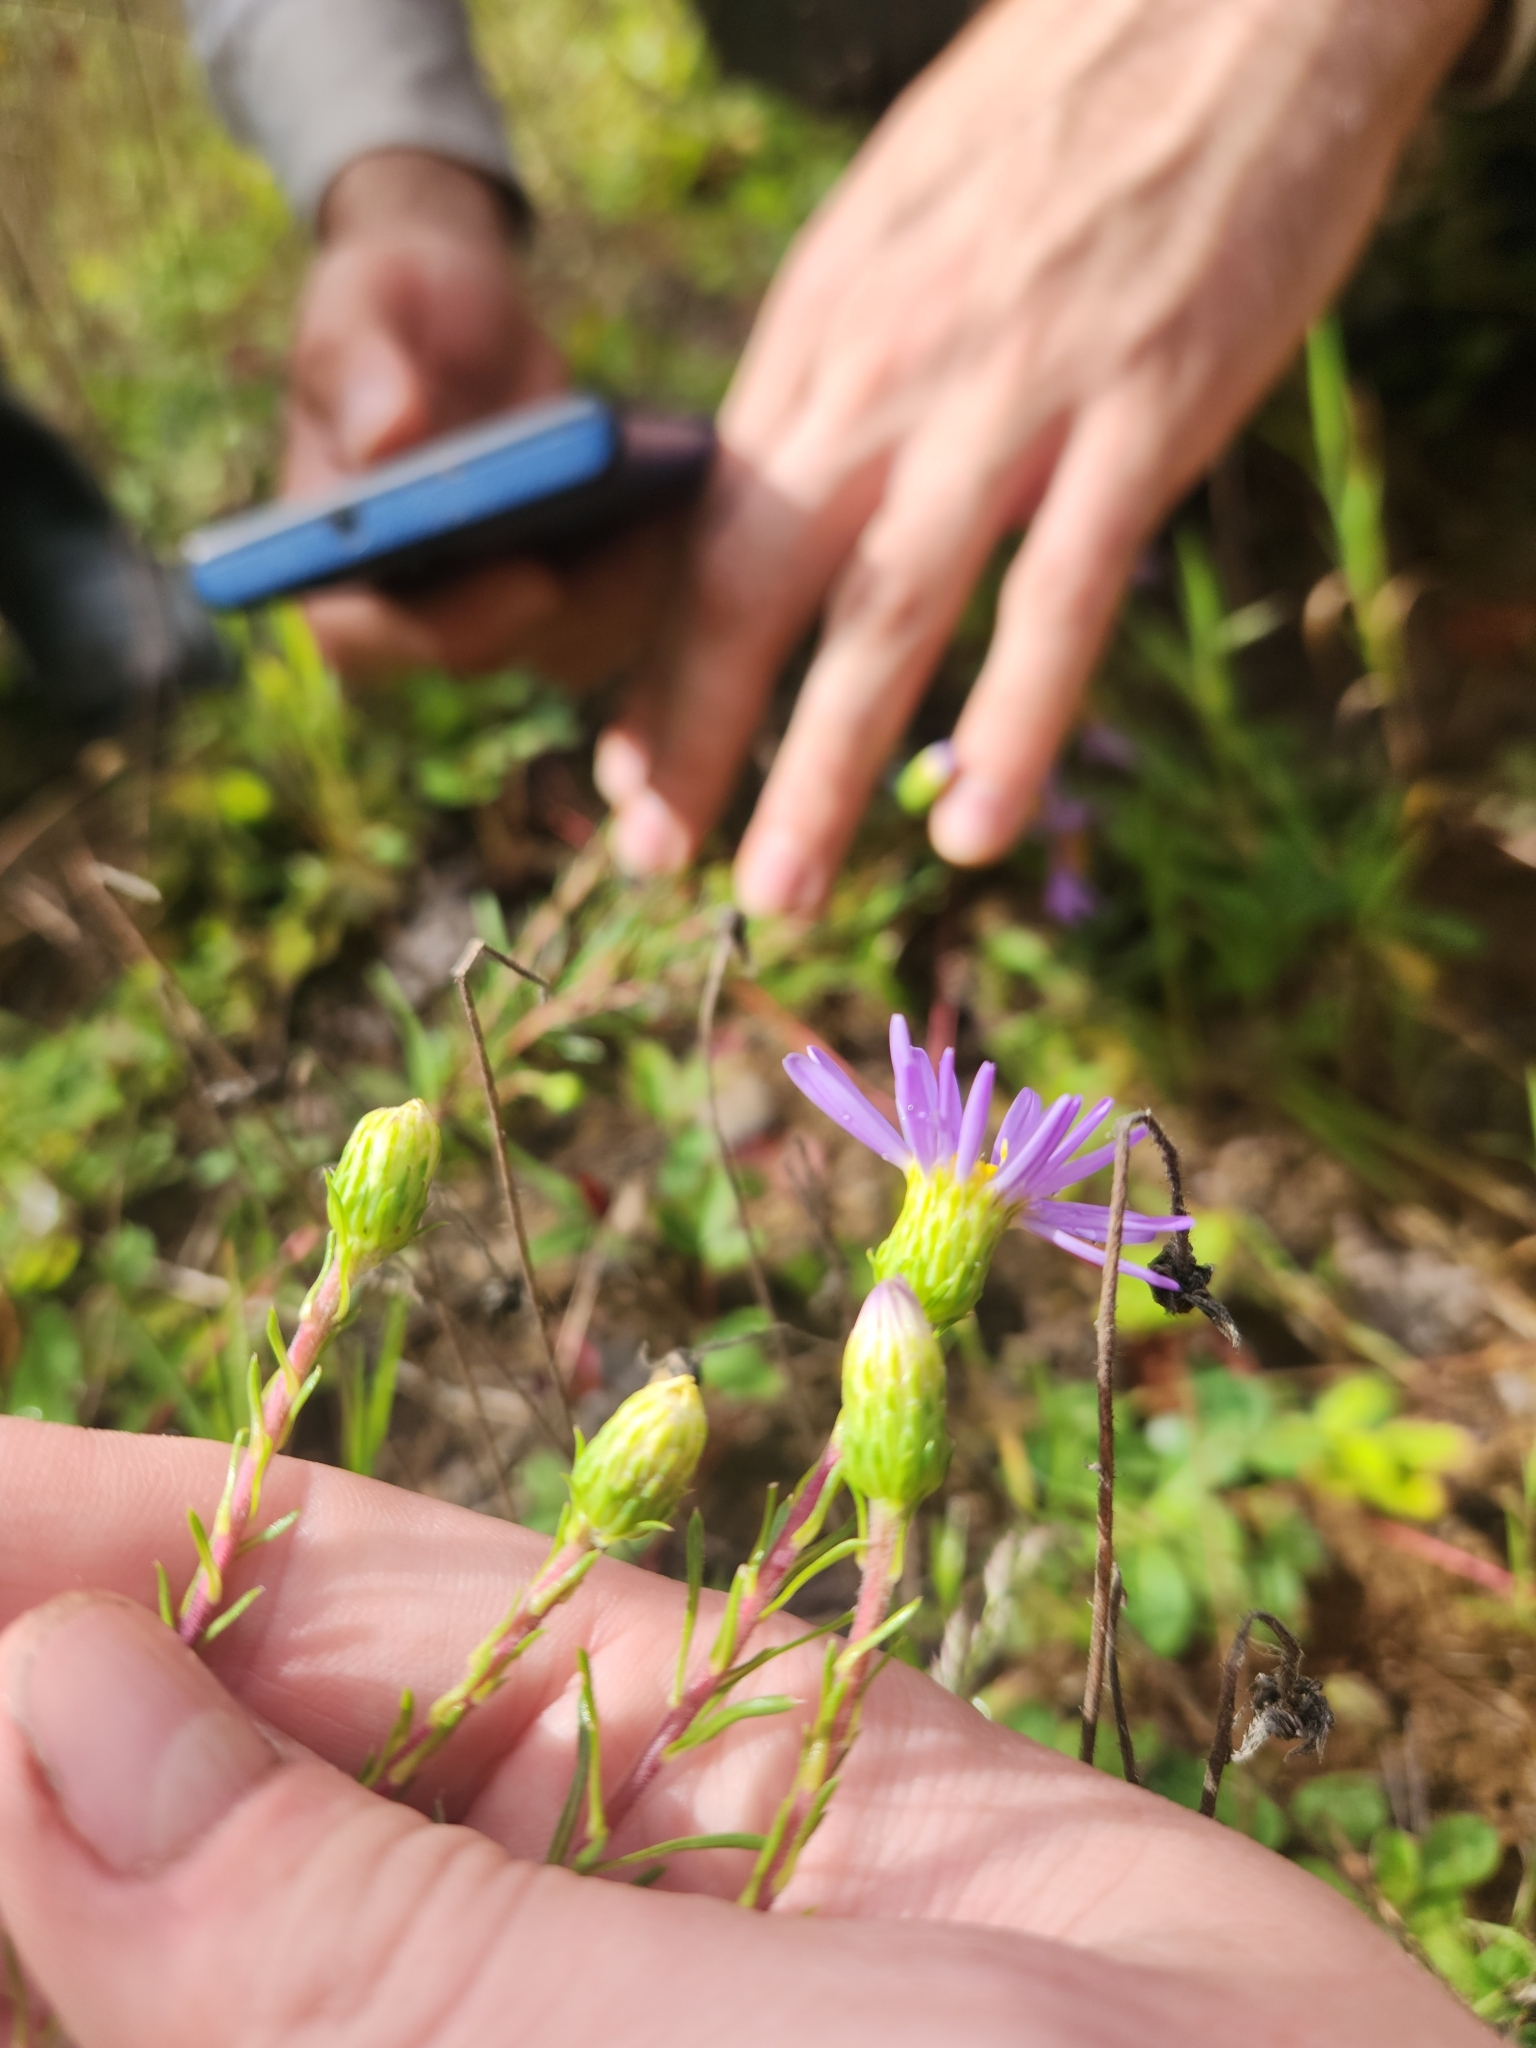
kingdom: Plantae
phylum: Tracheophyta
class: Magnoliopsida
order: Asterales
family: Asteraceae
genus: Ionactis
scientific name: Ionactis linariifolia
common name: Flax-leaf aster
